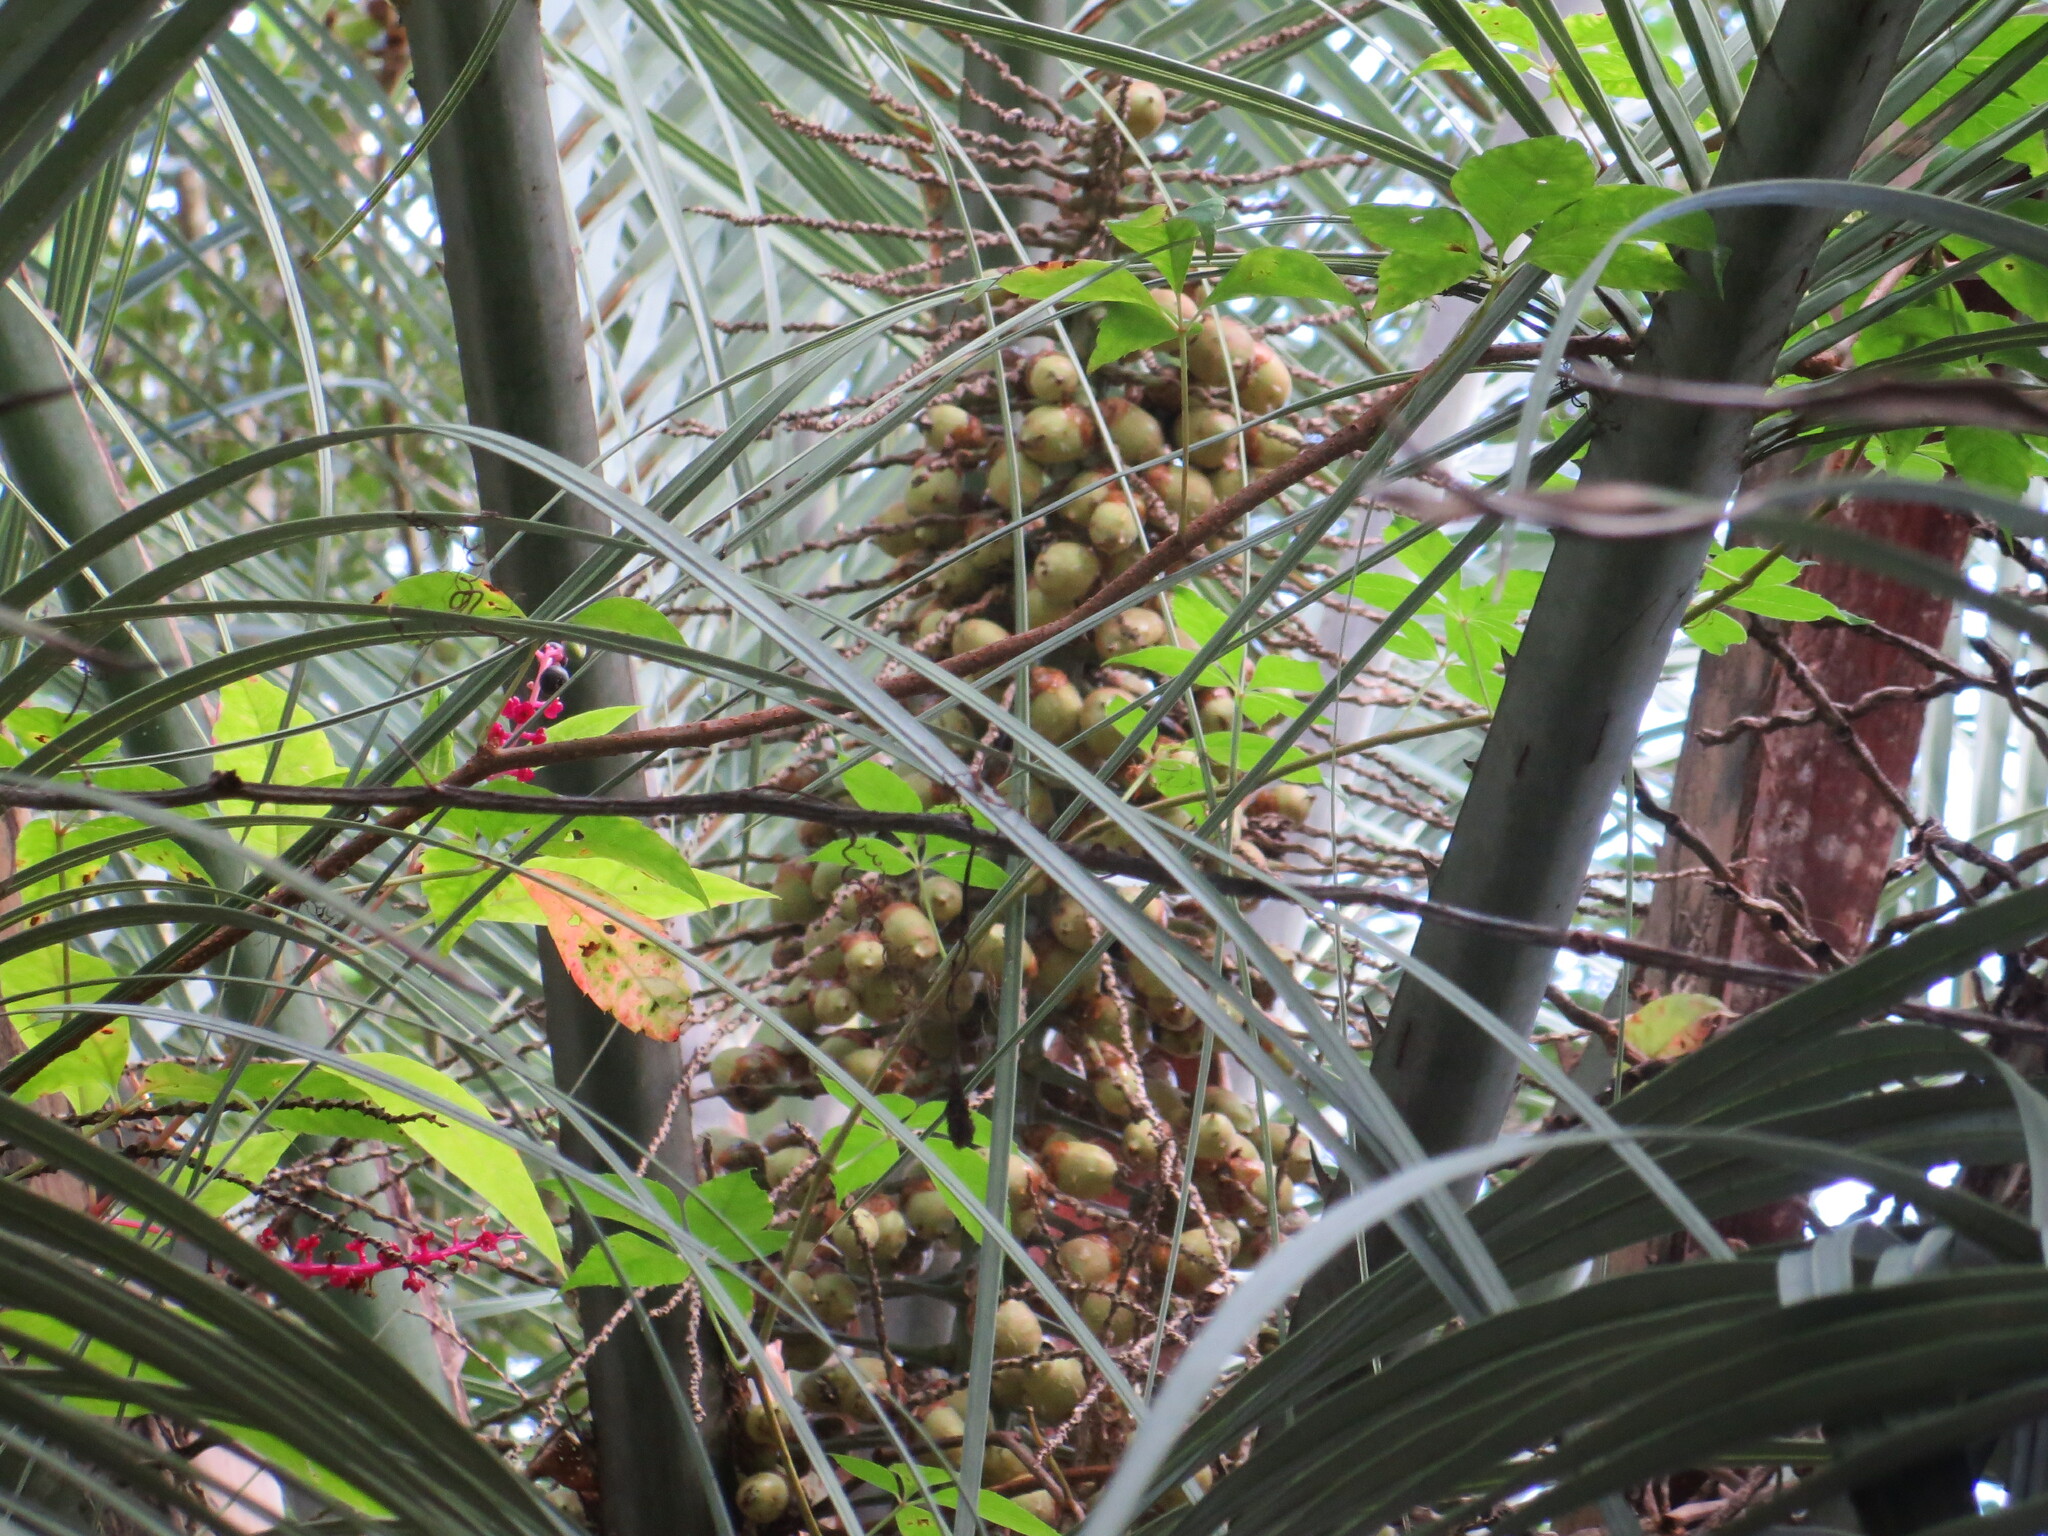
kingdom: Plantae
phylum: Tracheophyta
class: Magnoliopsida
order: Caryophyllales
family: Phytolaccaceae
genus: Phytolacca
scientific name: Phytolacca americana
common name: American pokeweed
